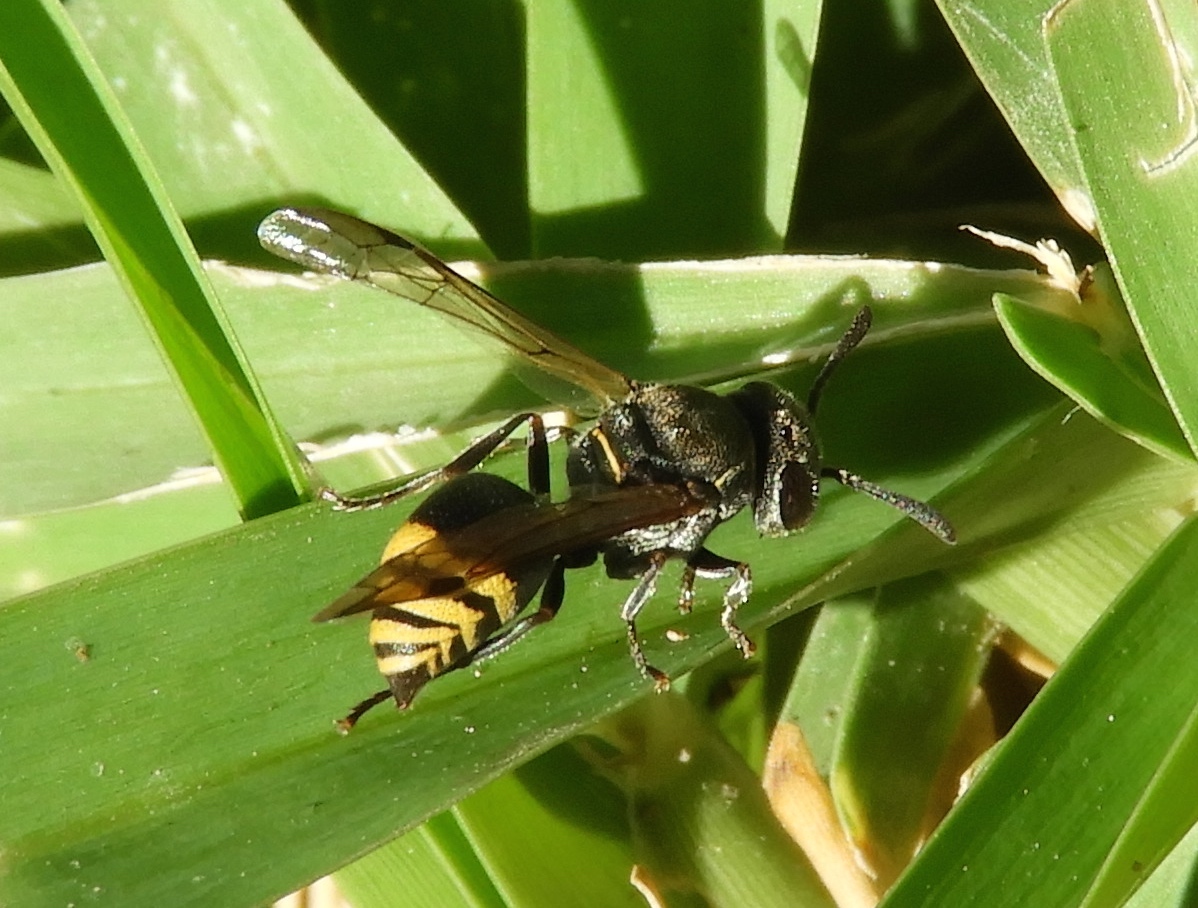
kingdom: Animalia
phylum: Arthropoda
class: Insecta
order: Hymenoptera
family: Vespidae
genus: Brachygastra
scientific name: Brachygastra azteca
